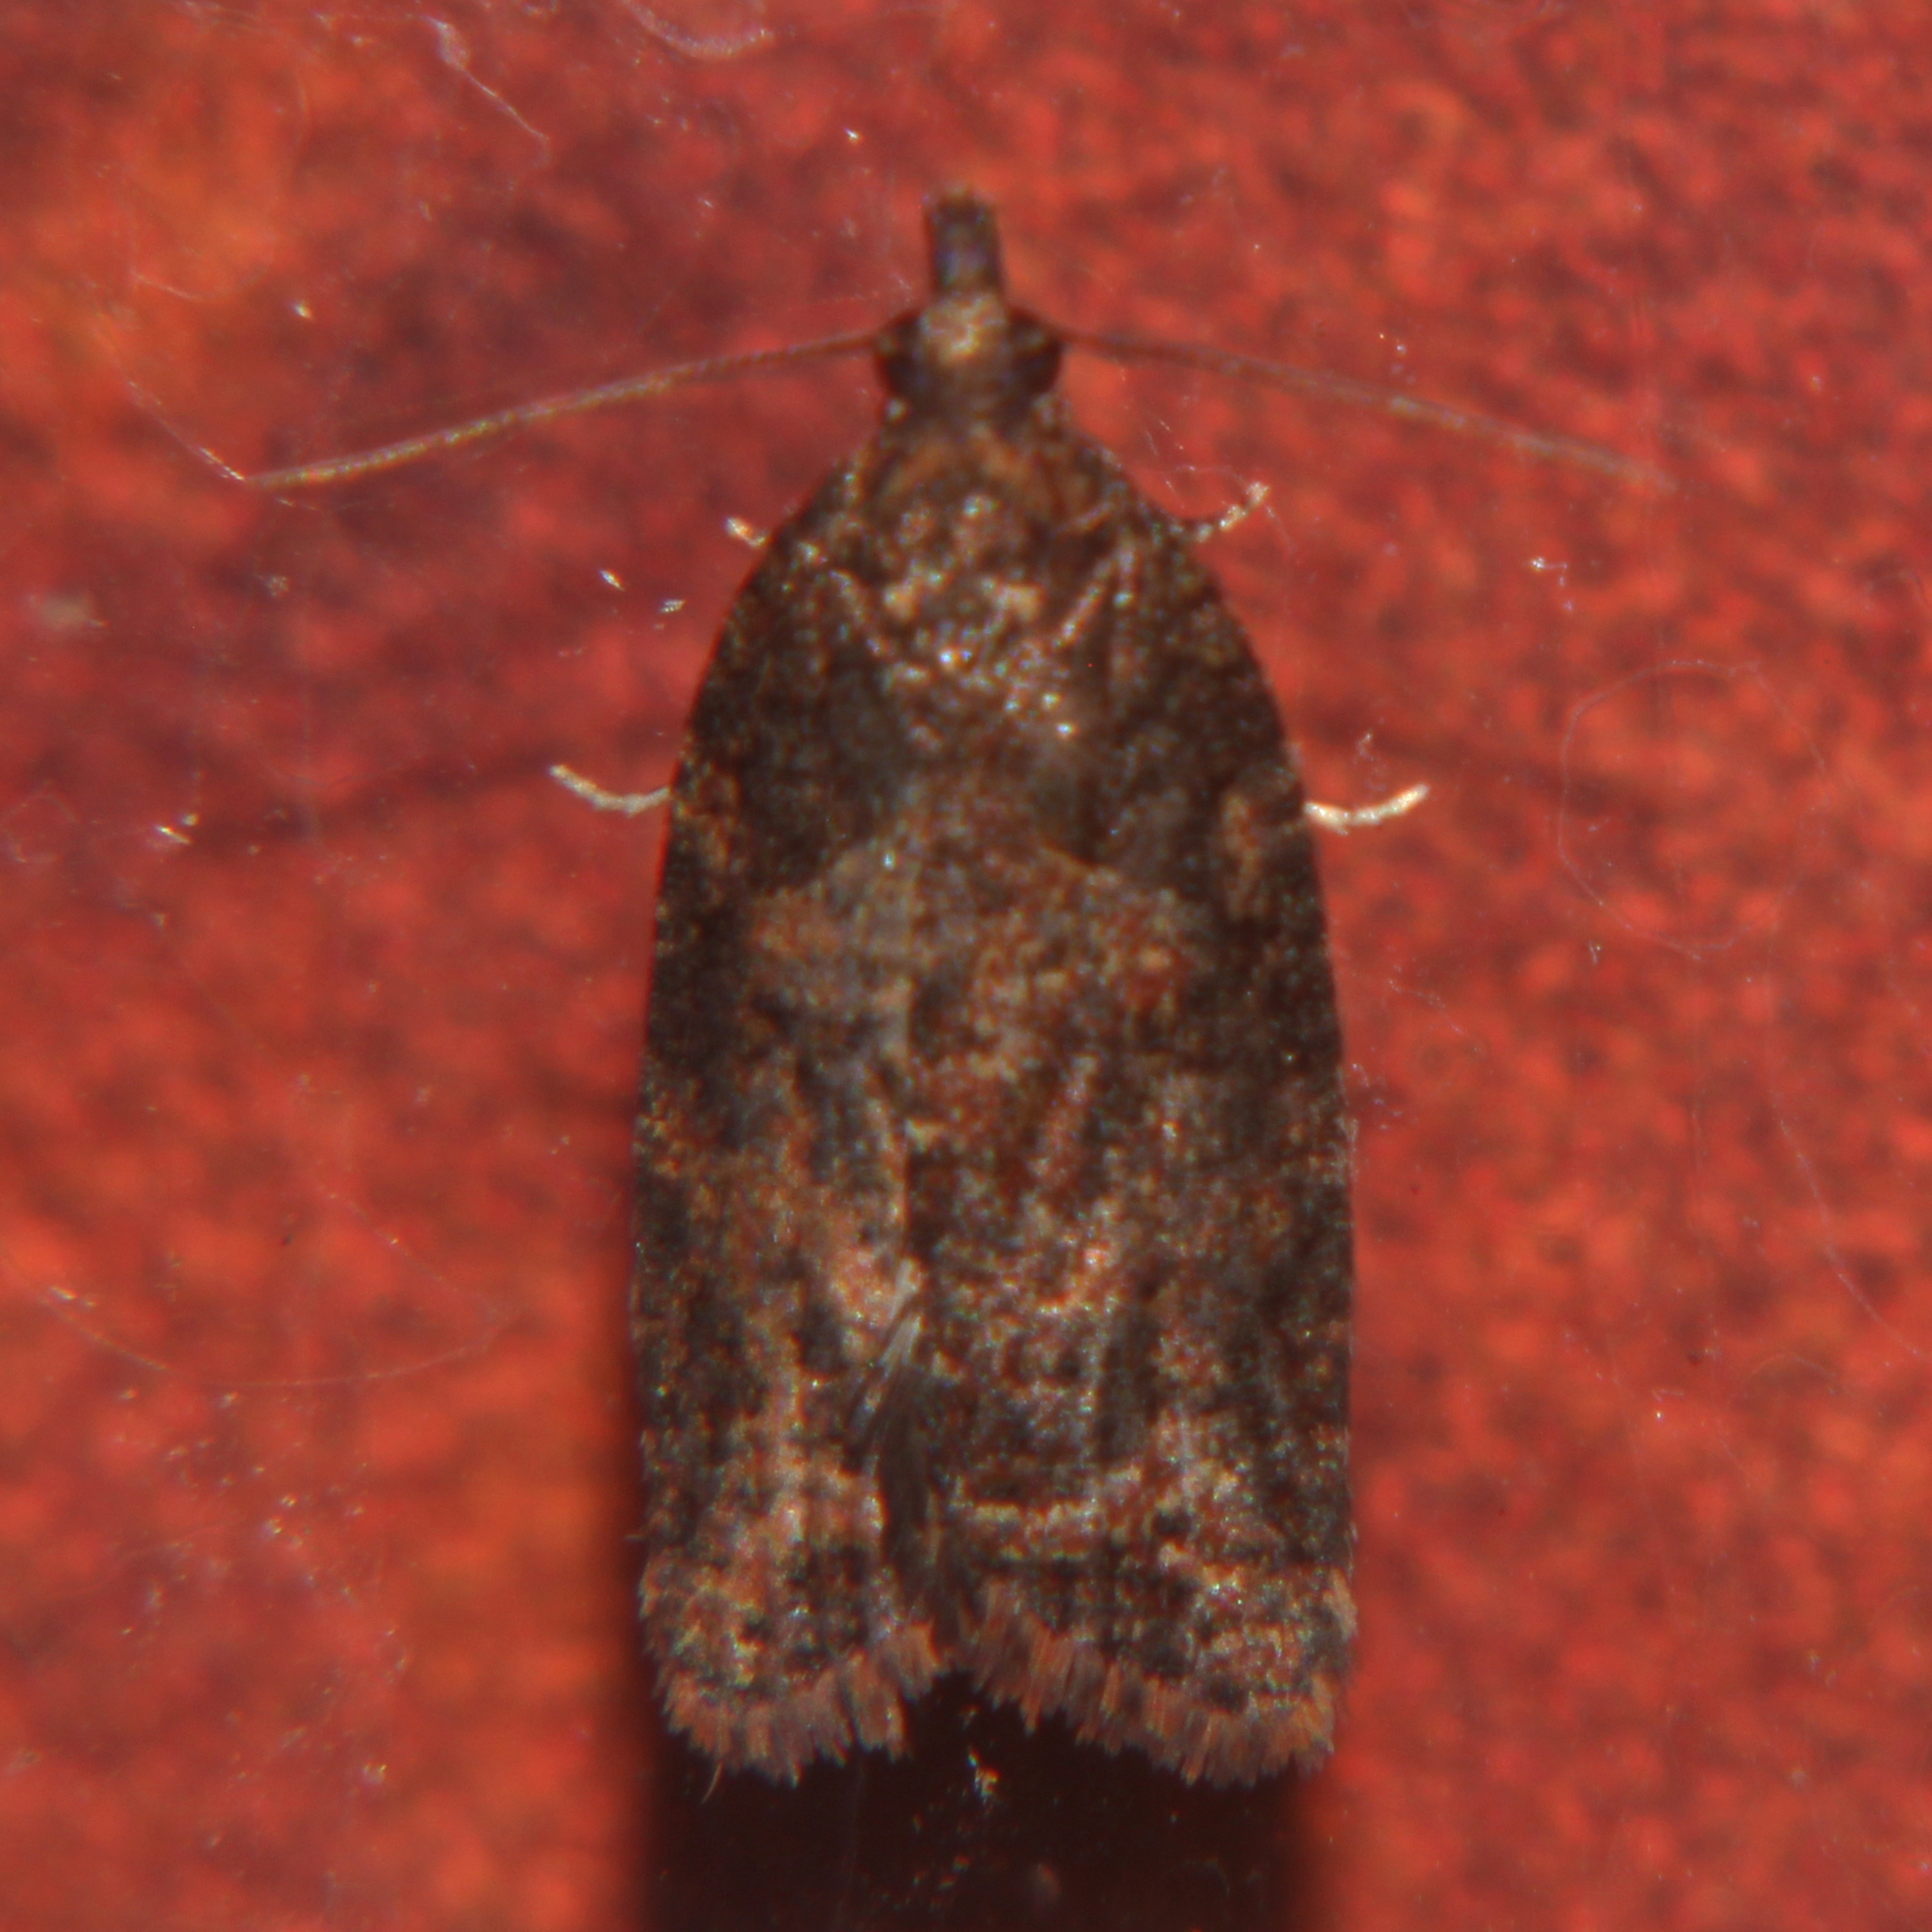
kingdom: Animalia
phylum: Arthropoda
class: Insecta
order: Lepidoptera
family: Tortricidae
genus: Capua
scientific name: Capua intractana
